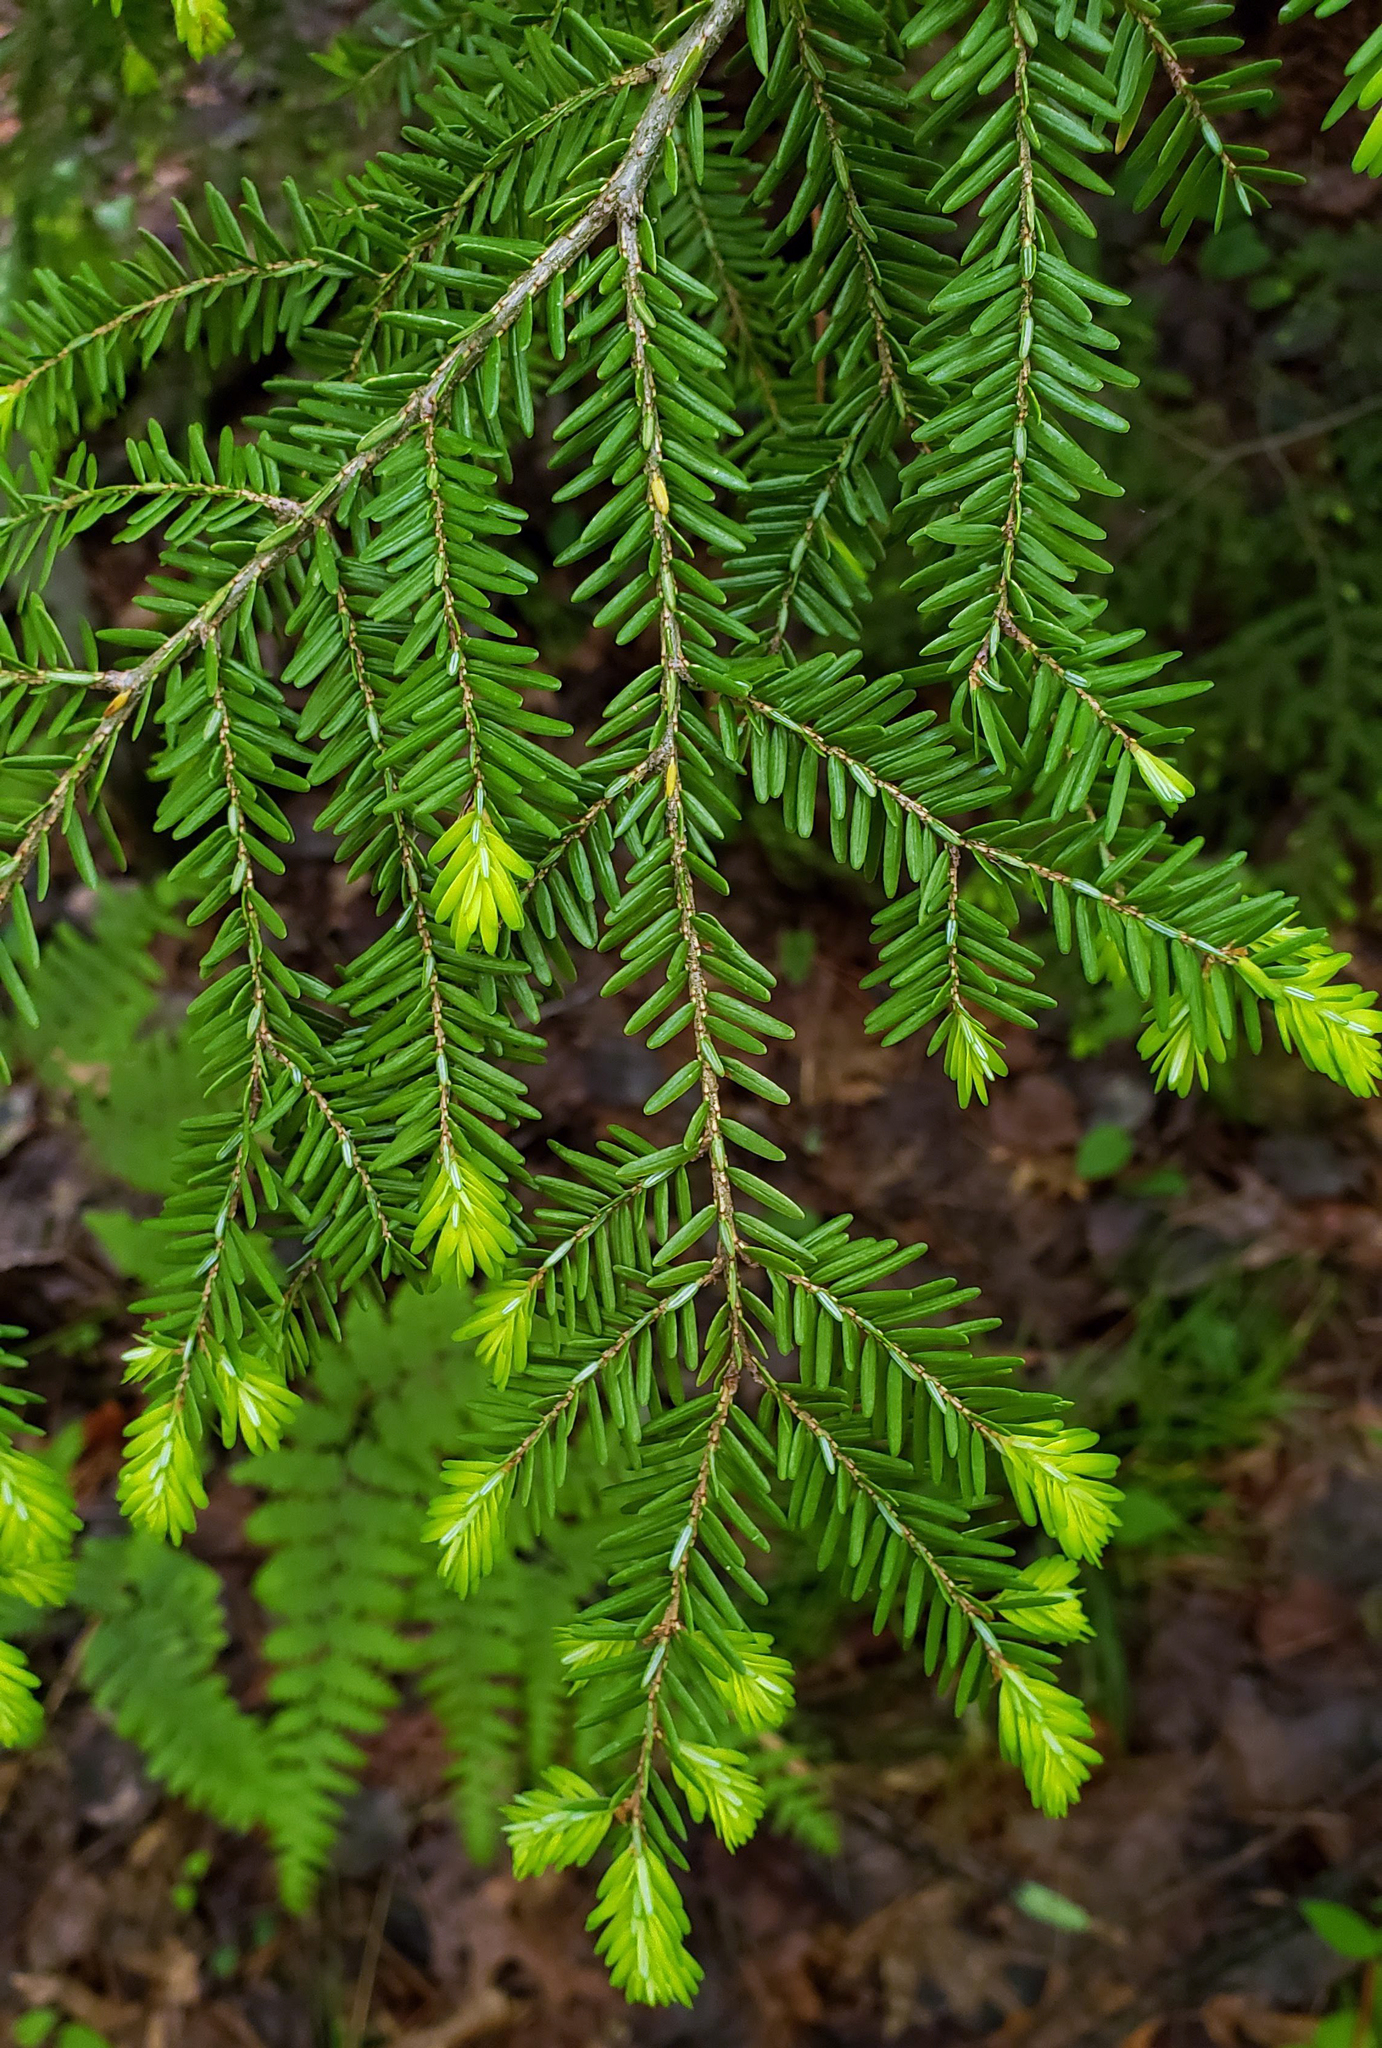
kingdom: Plantae
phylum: Tracheophyta
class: Pinopsida
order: Pinales
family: Pinaceae
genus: Tsuga
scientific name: Tsuga canadensis
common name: Eastern hemlock
